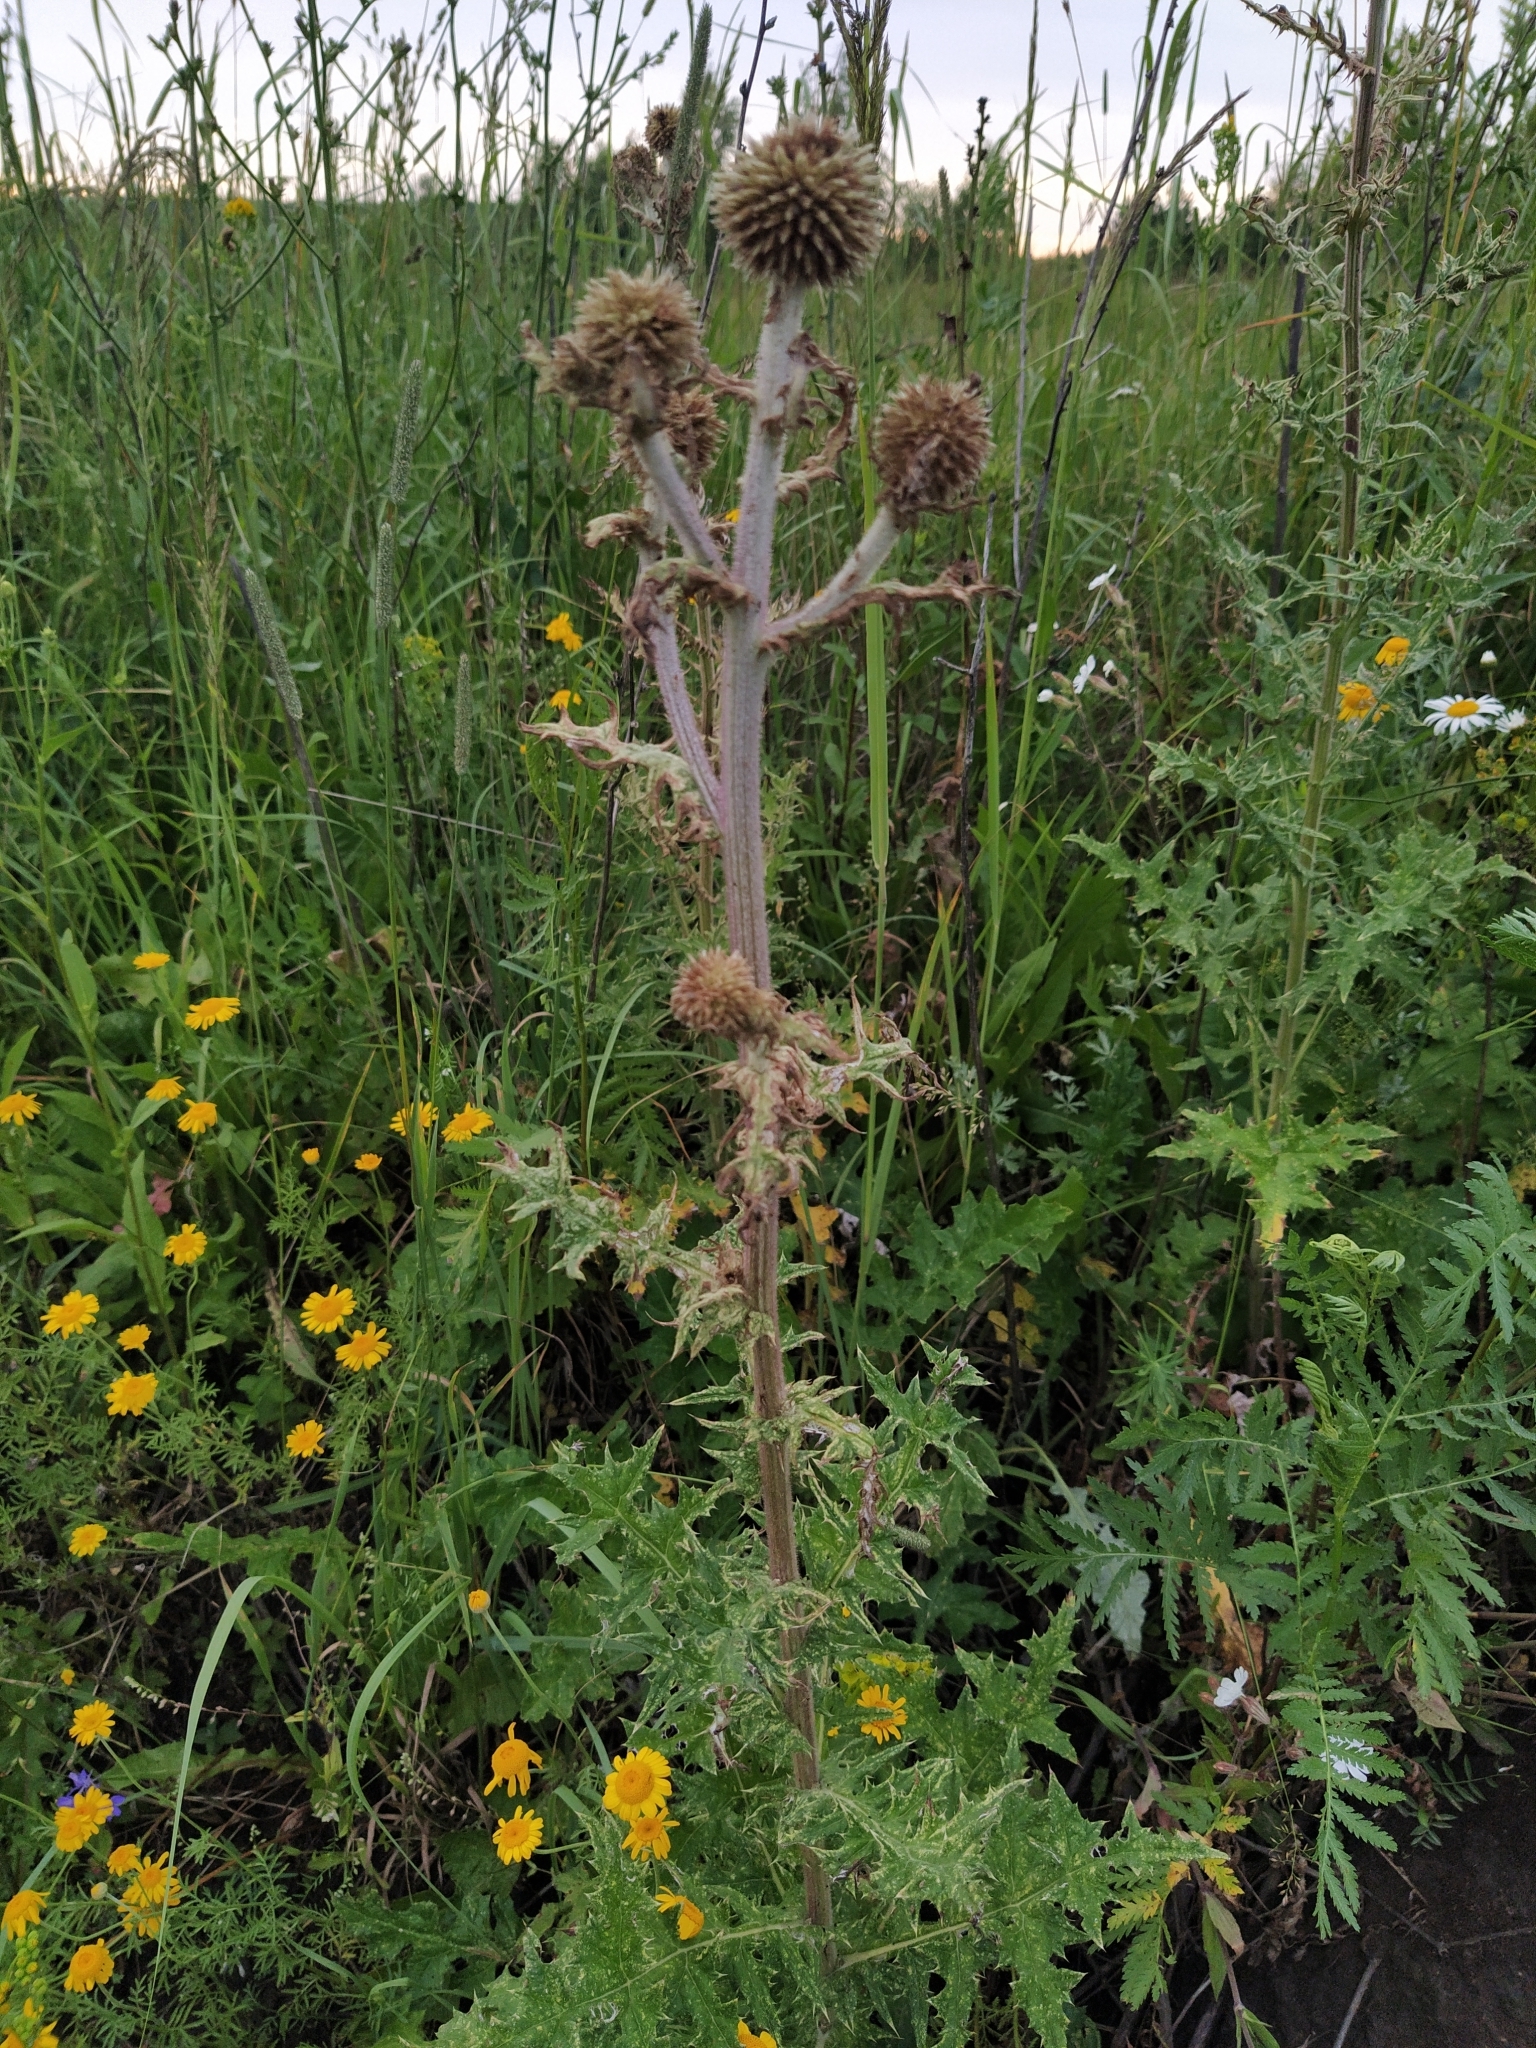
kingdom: Plantae
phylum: Tracheophyta
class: Magnoliopsida
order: Asterales
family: Asteraceae
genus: Echinops
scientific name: Echinops sphaerocephalus
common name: Glandular globe-thistle
